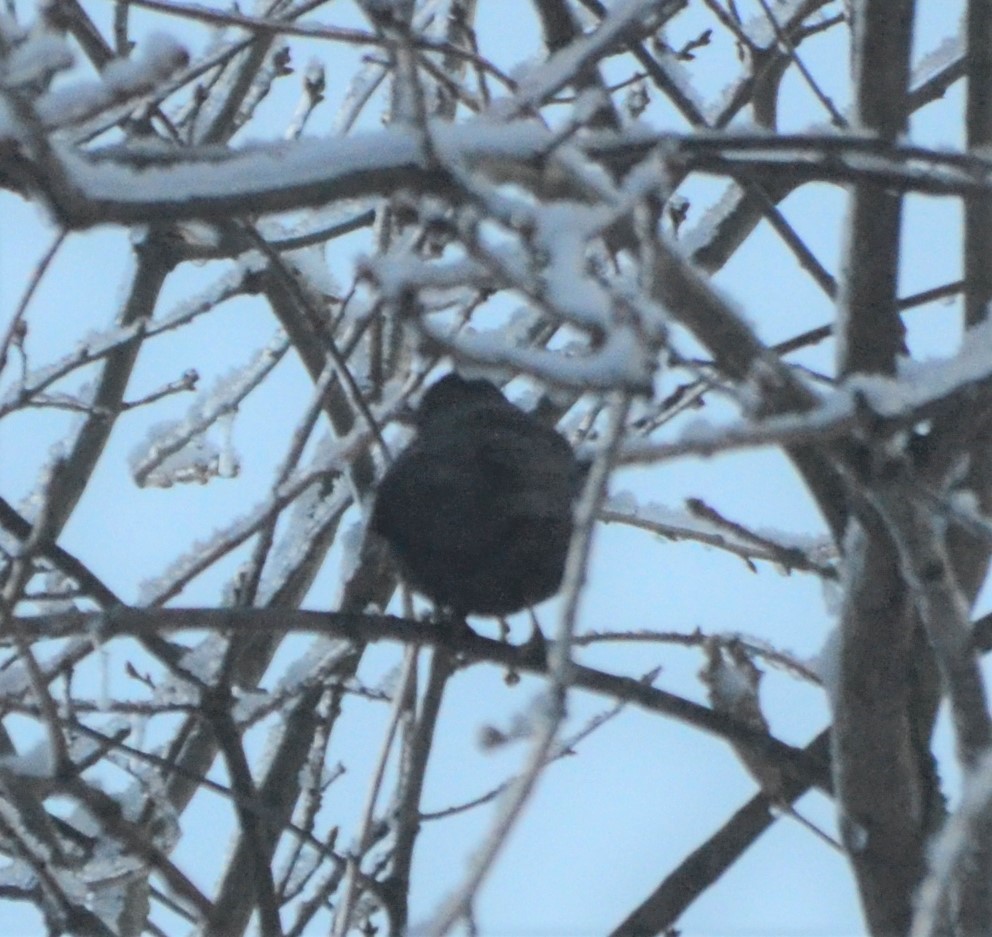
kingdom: Animalia
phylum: Chordata
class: Aves
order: Passeriformes
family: Turdidae
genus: Turdus
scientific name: Turdus merula
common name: Common blackbird
